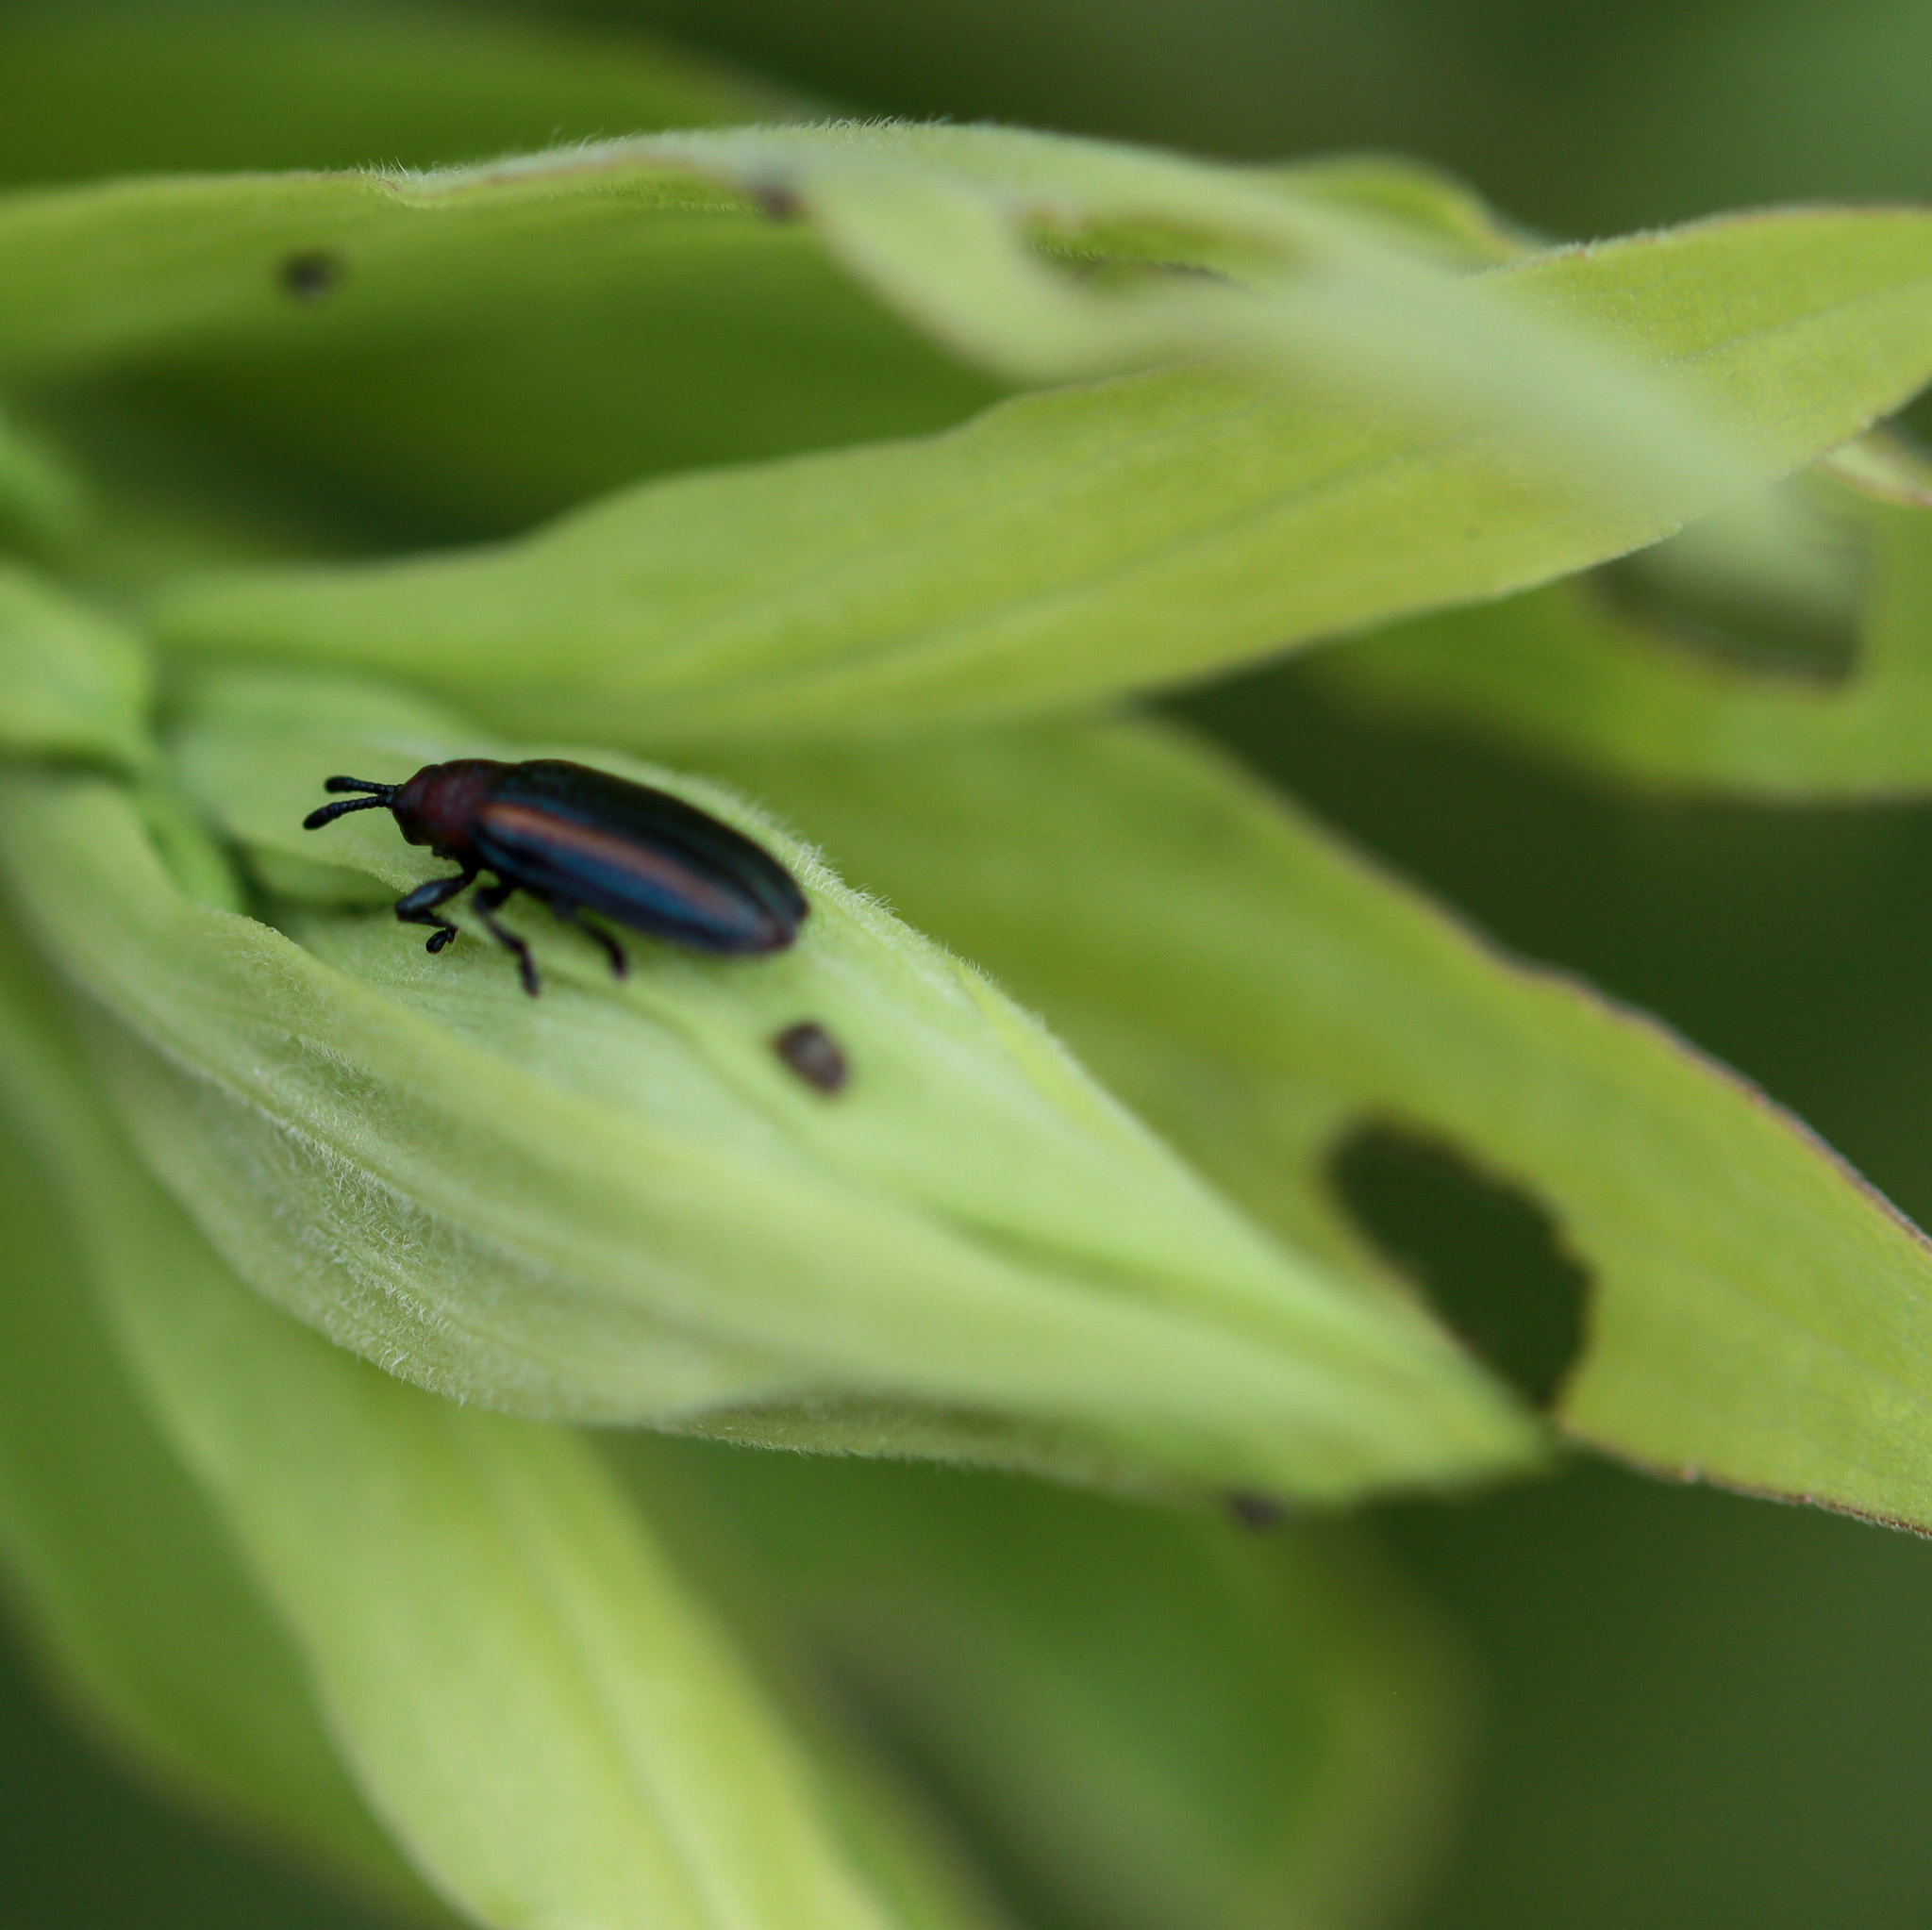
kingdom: Animalia
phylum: Arthropoda
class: Insecta
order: Coleoptera
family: Chrysomelidae
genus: Microrhopala
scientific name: Microrhopala vittata
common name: Goldenrod leaf miner beetle
